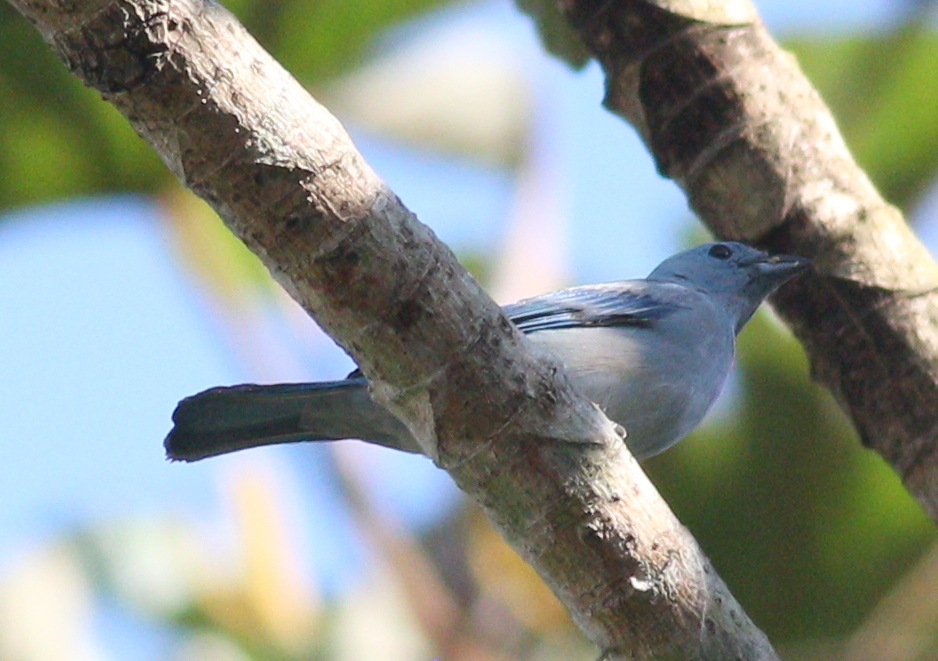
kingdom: Animalia
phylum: Chordata
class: Aves
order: Passeriformes
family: Thraupidae
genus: Thraupis
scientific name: Thraupis episcopus
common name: Blue-grey tanager
